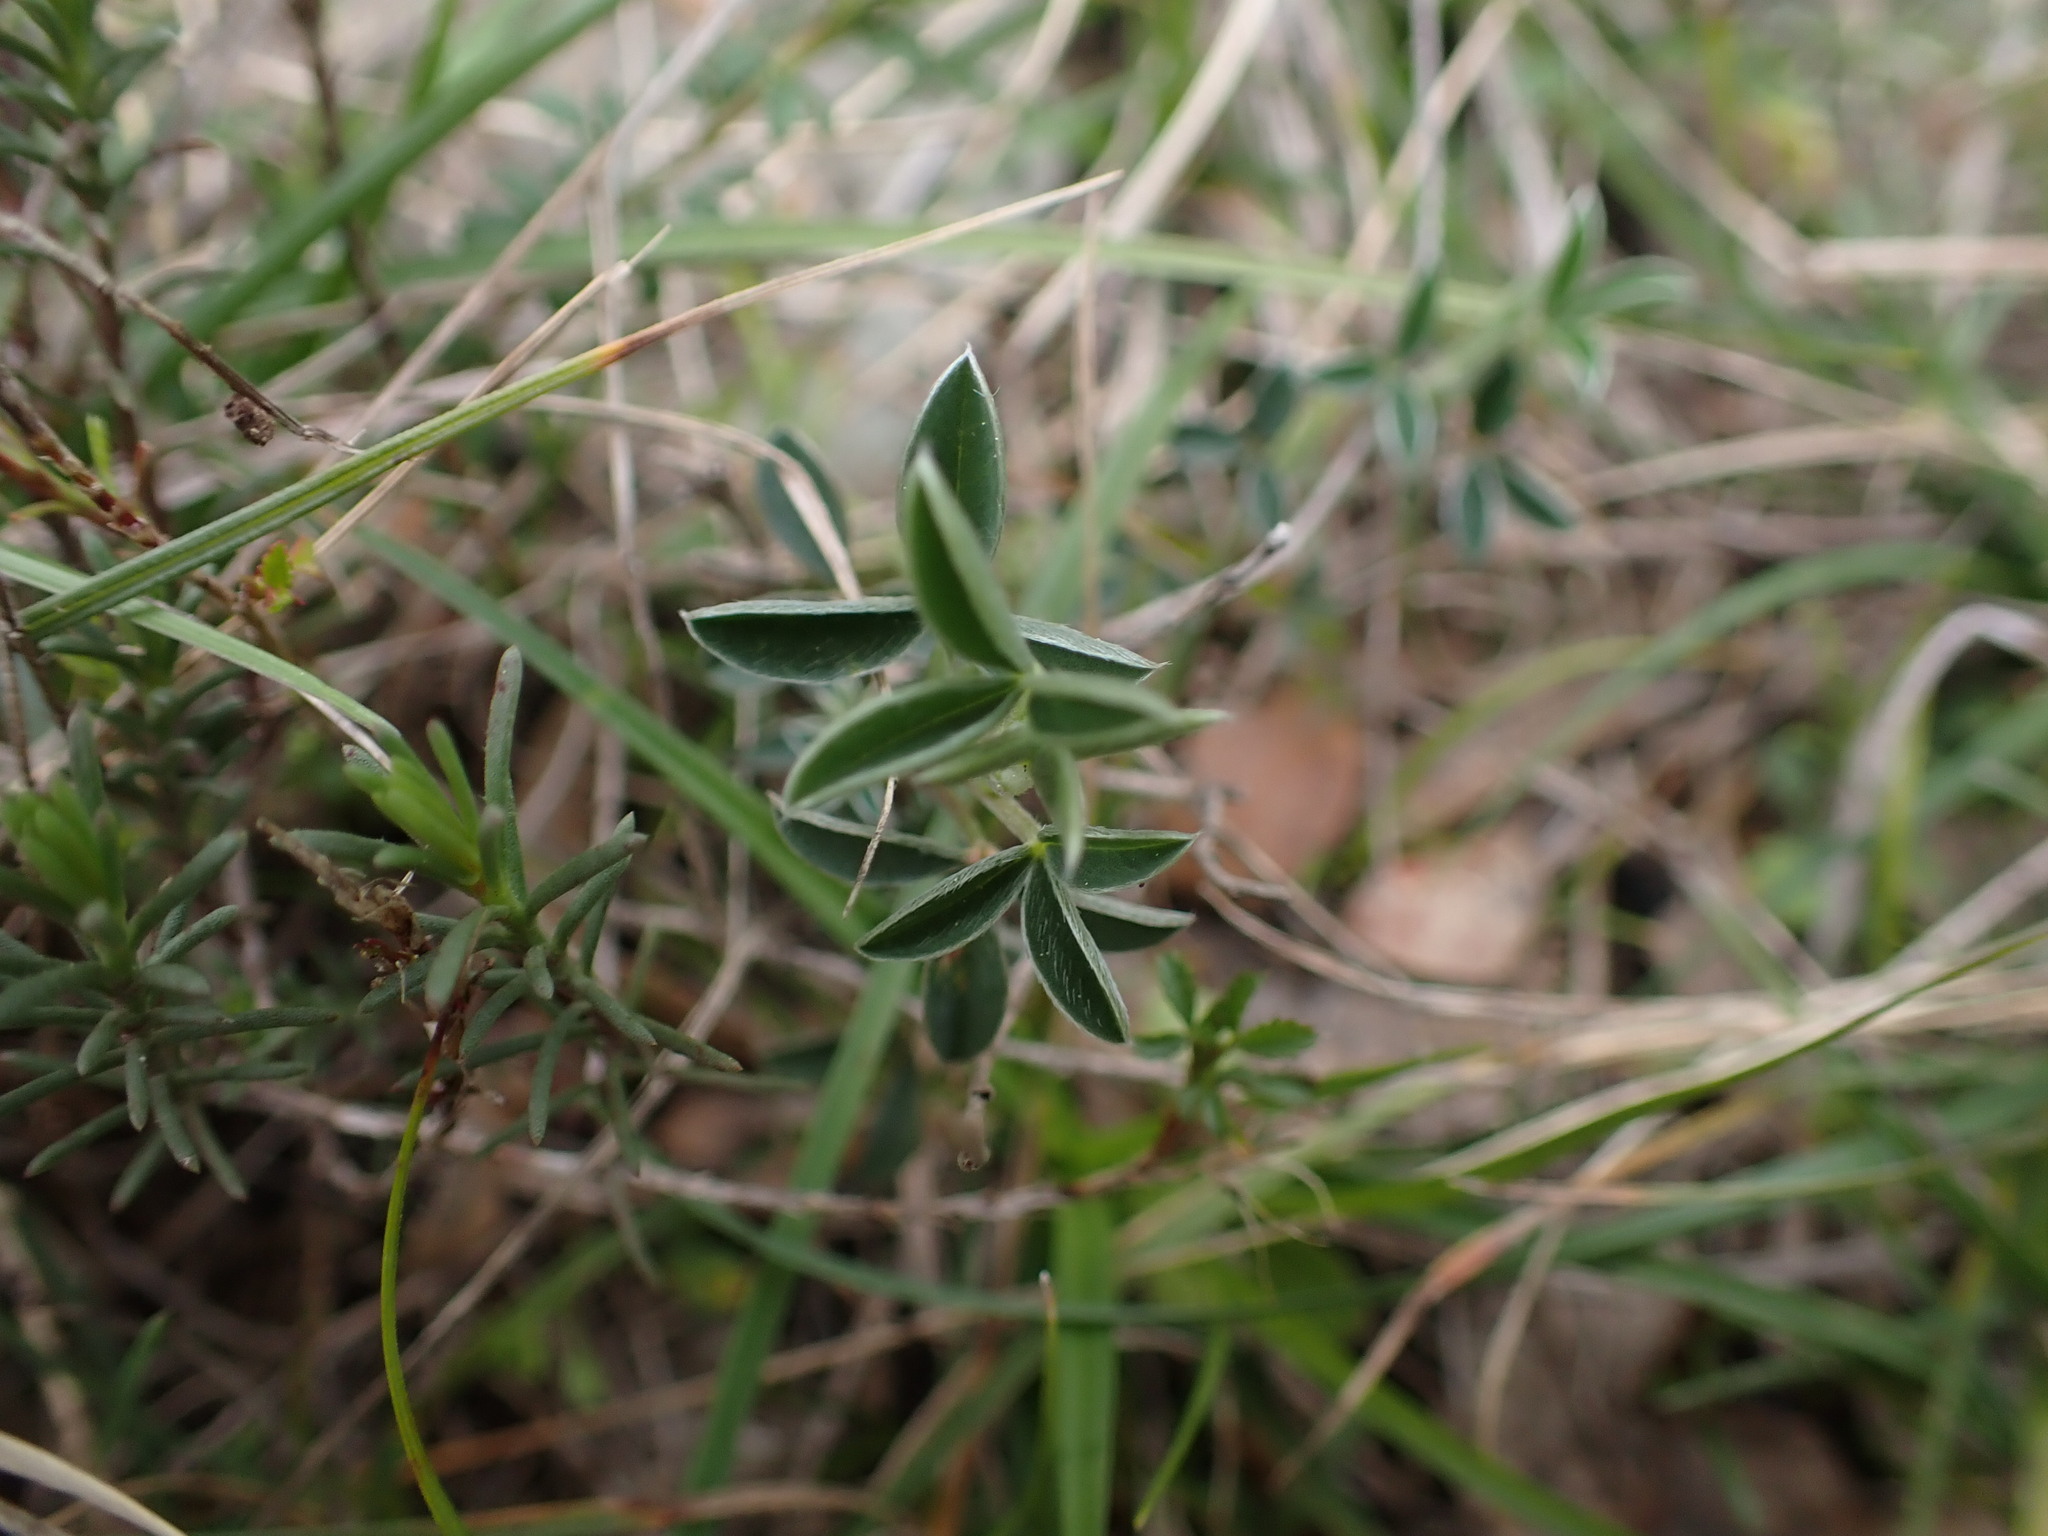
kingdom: Plantae
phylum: Tracheophyta
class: Magnoliopsida
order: Fabales
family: Fabaceae
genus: Argyrolobium
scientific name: Argyrolobium zanonii
